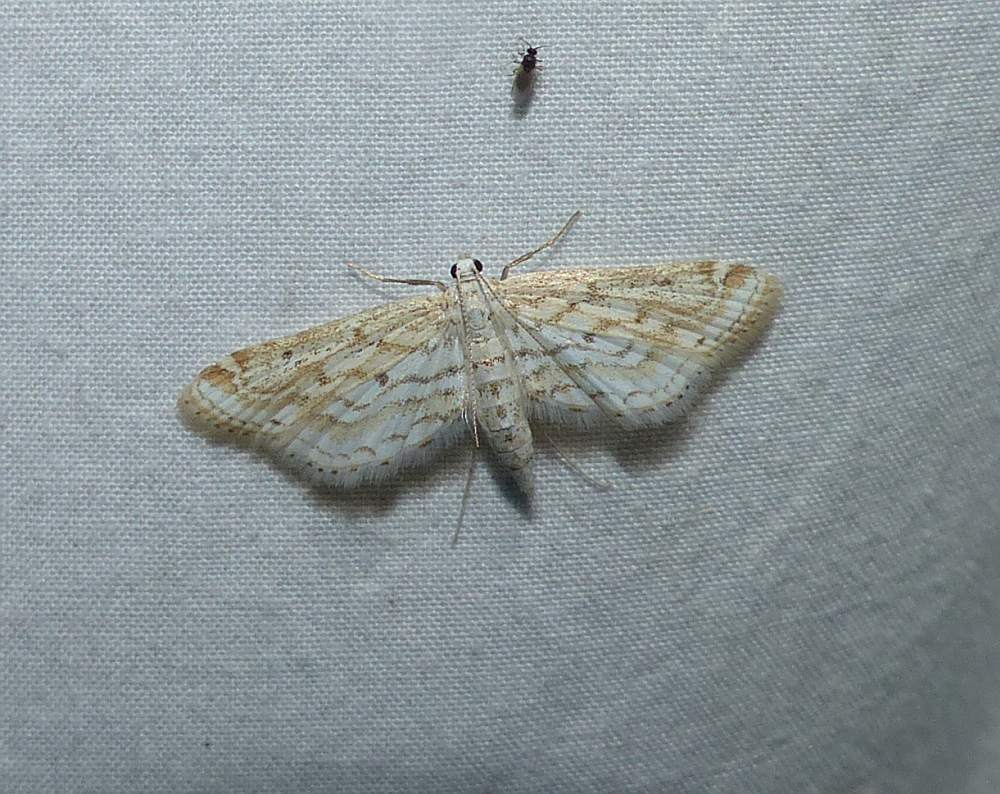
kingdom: Animalia
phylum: Arthropoda
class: Insecta
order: Lepidoptera
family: Crambidae
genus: Parapoynx
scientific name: Parapoynx allionealis
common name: Bladderwort casemaker
